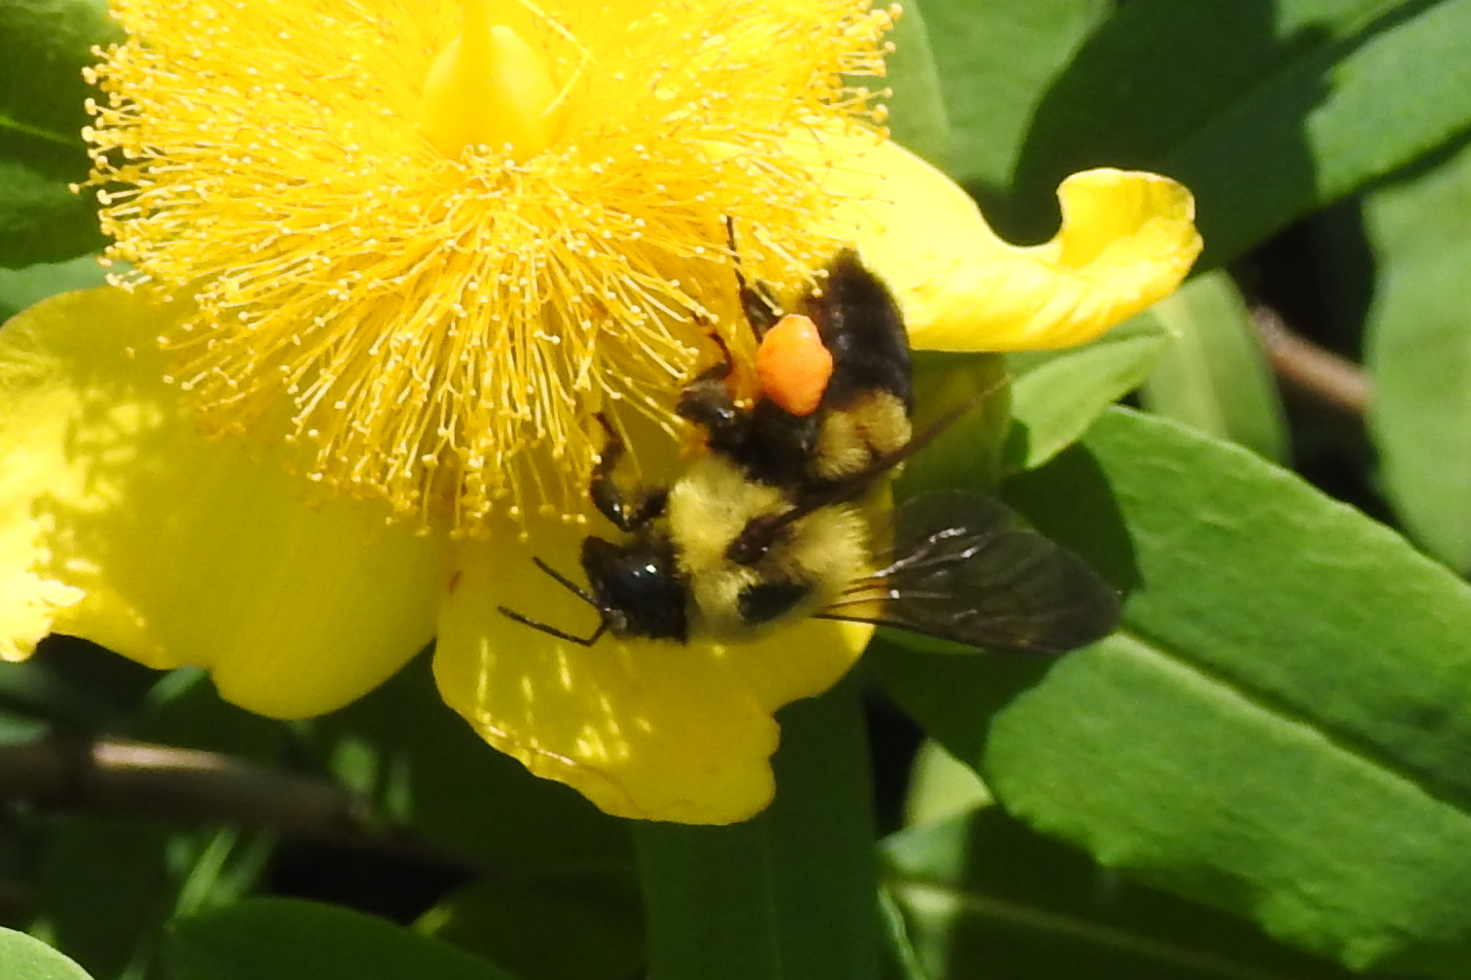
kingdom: Animalia
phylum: Arthropoda
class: Insecta
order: Hymenoptera
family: Apidae
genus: Bombus
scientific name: Bombus griseocollis
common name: Brown-belted bumble bee
